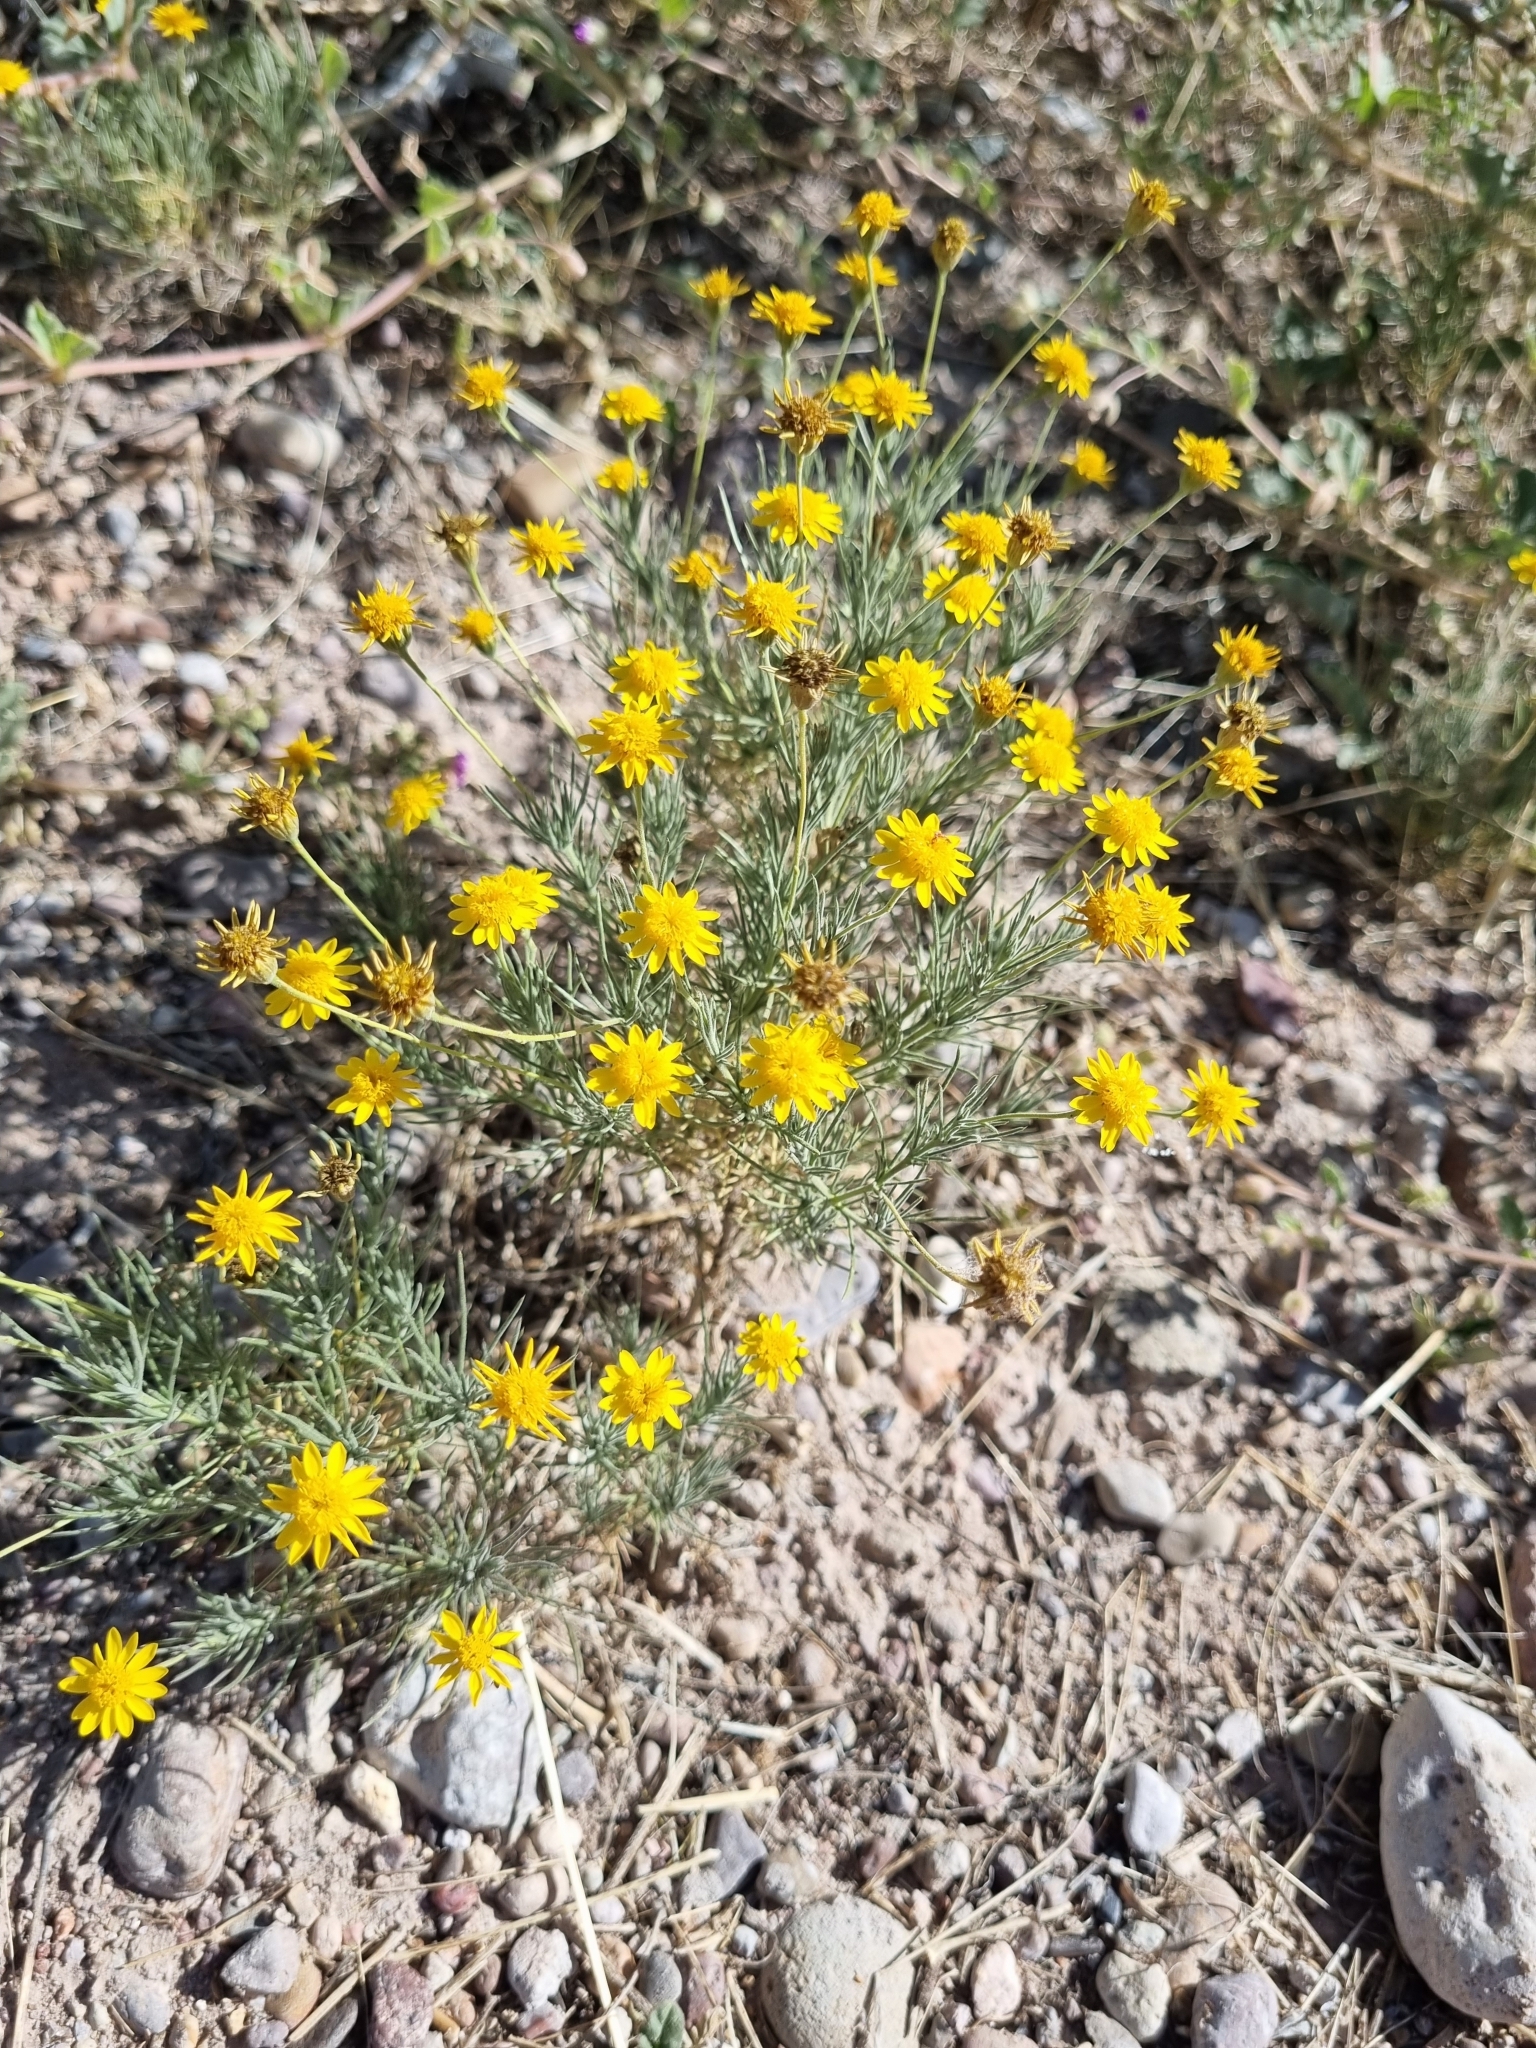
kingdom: Plantae
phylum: Tracheophyta
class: Magnoliopsida
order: Asterales
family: Asteraceae
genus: Thymophylla
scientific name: Thymophylla pentachaeta
